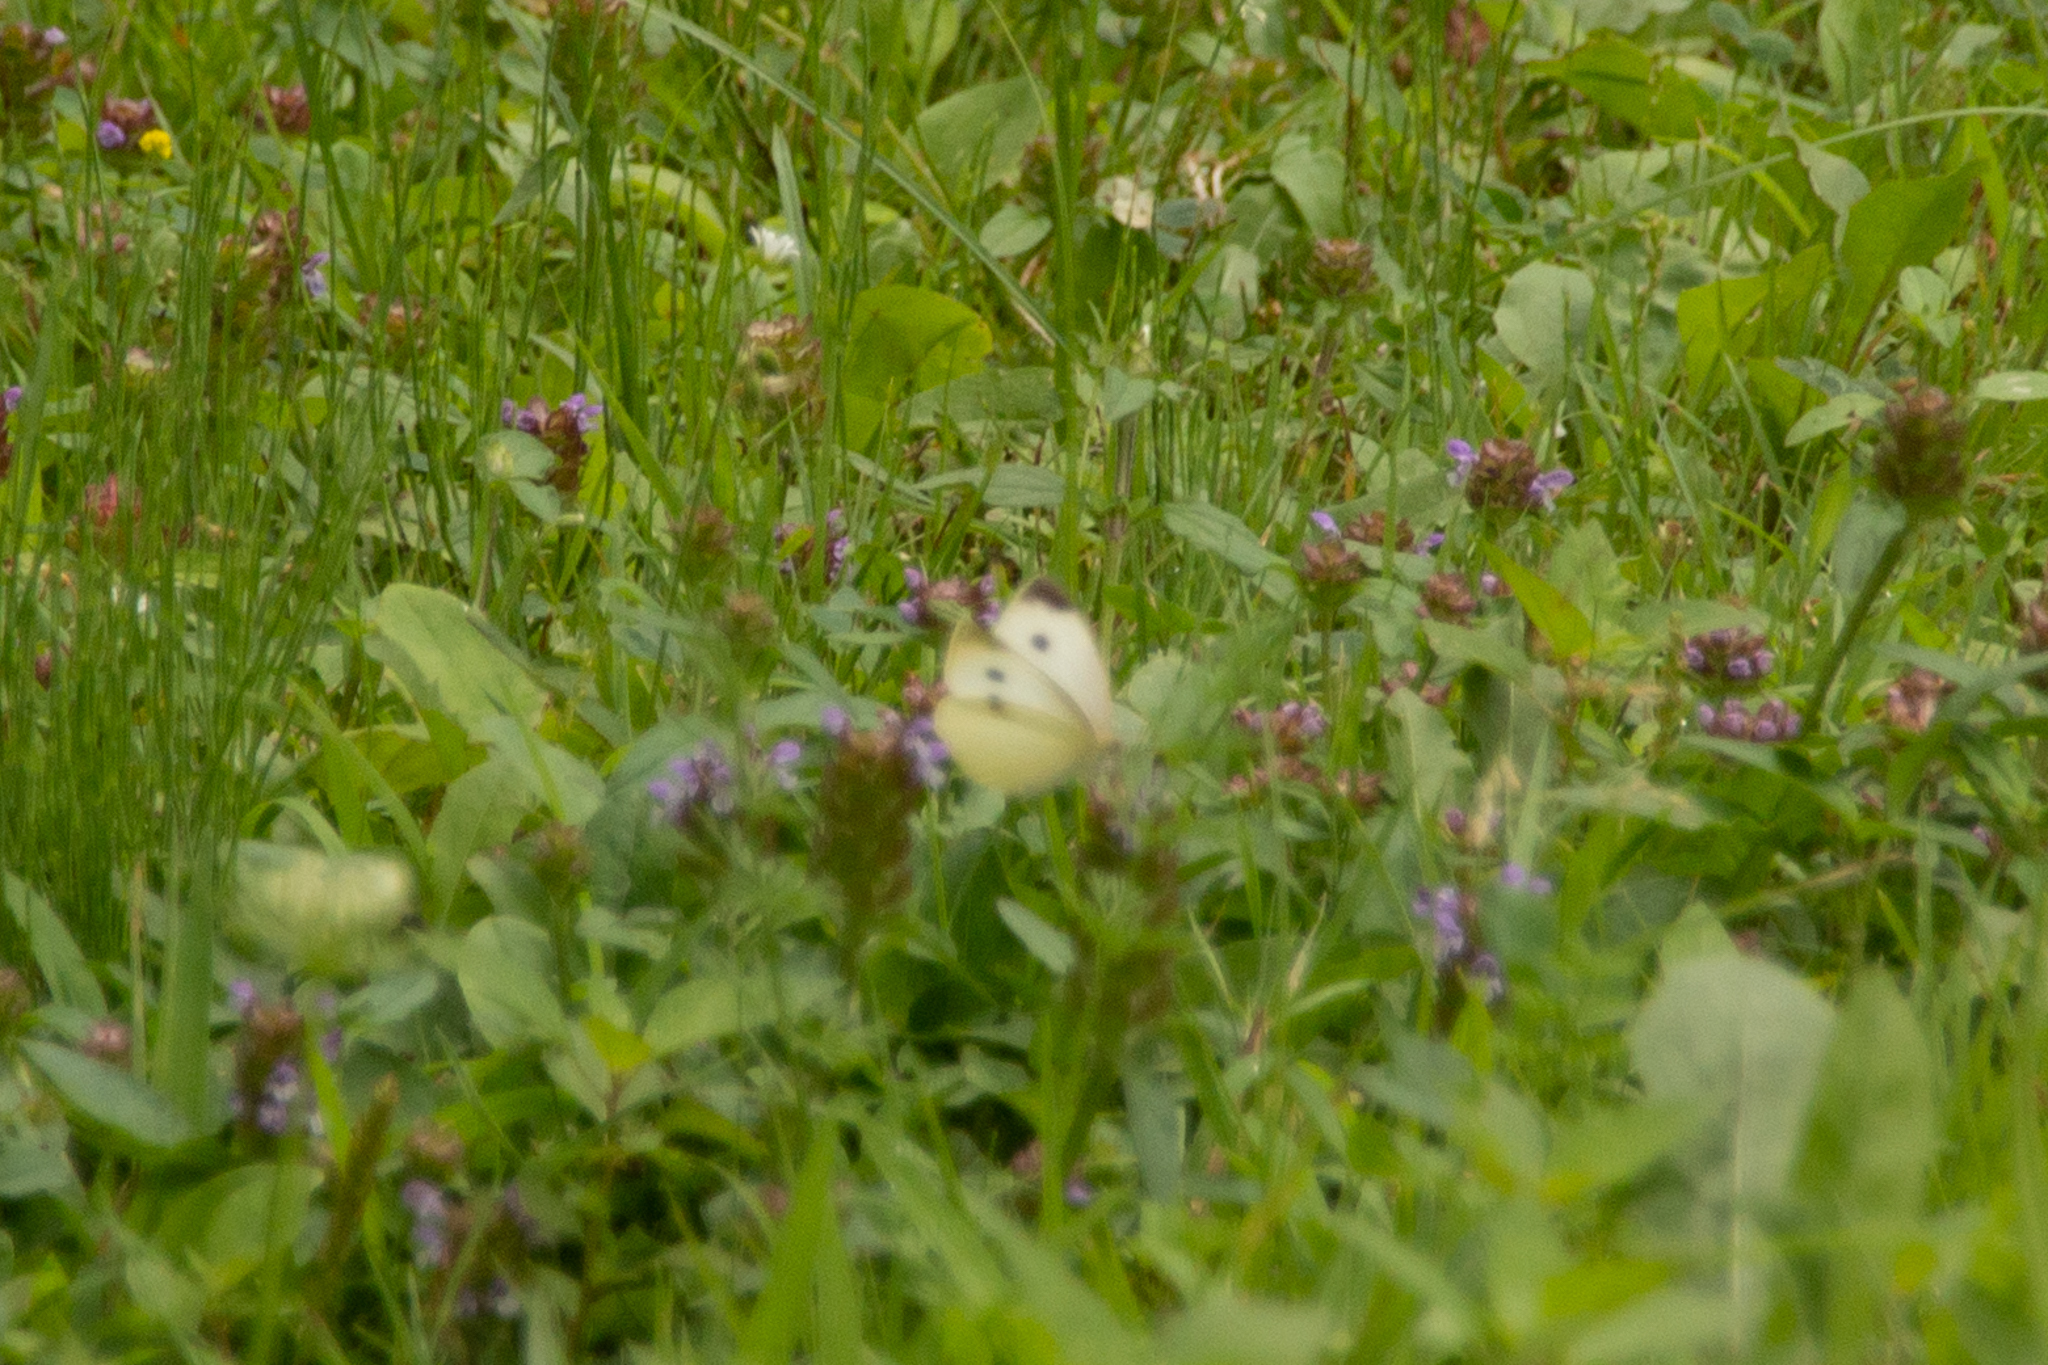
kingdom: Animalia
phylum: Arthropoda
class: Insecta
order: Lepidoptera
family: Pieridae
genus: Pieris
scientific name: Pieris rapae
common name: Small white
